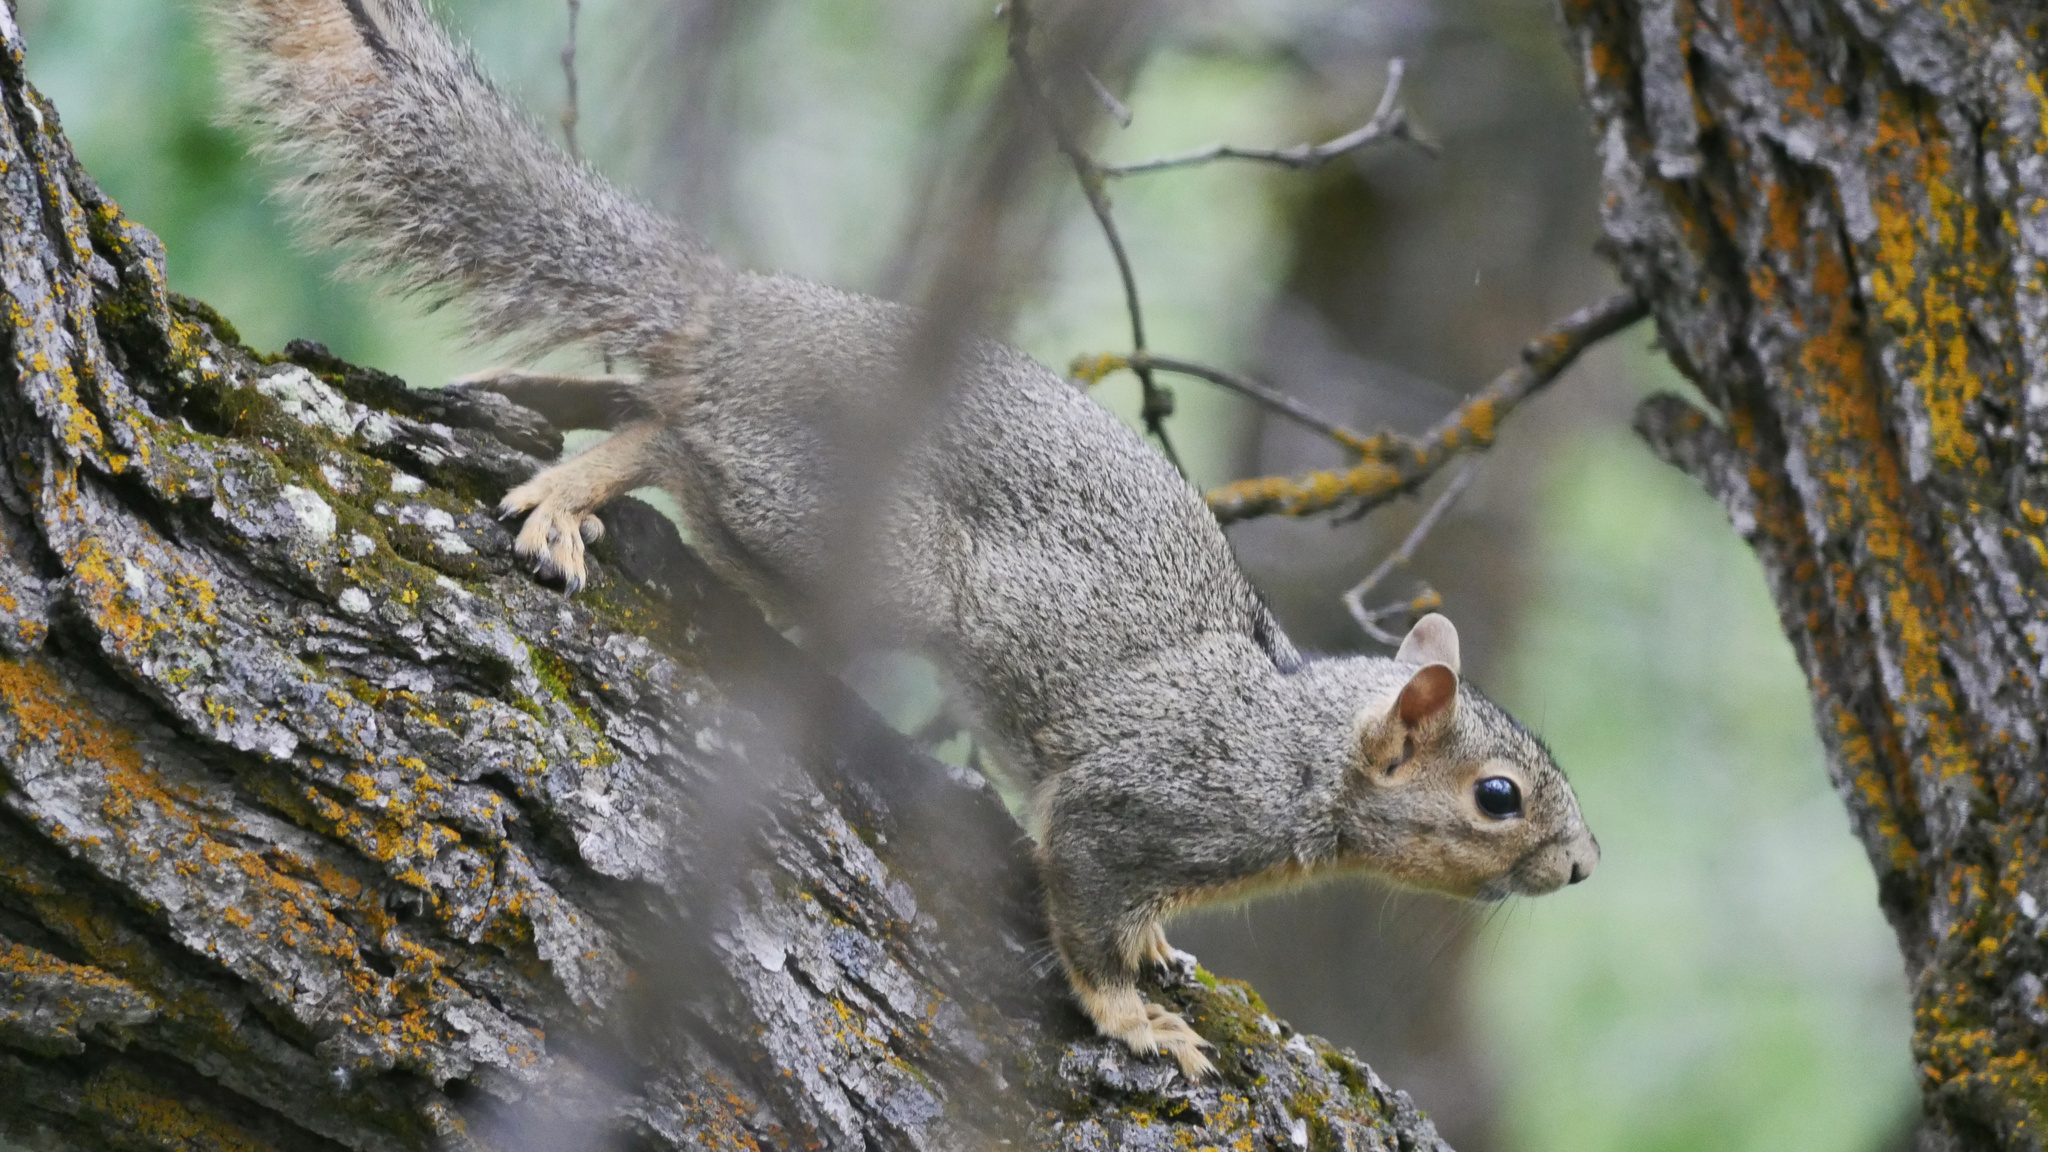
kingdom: Animalia
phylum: Chordata
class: Mammalia
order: Rodentia
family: Sciuridae
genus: Sciurus
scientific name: Sciurus niger
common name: Fox squirrel
